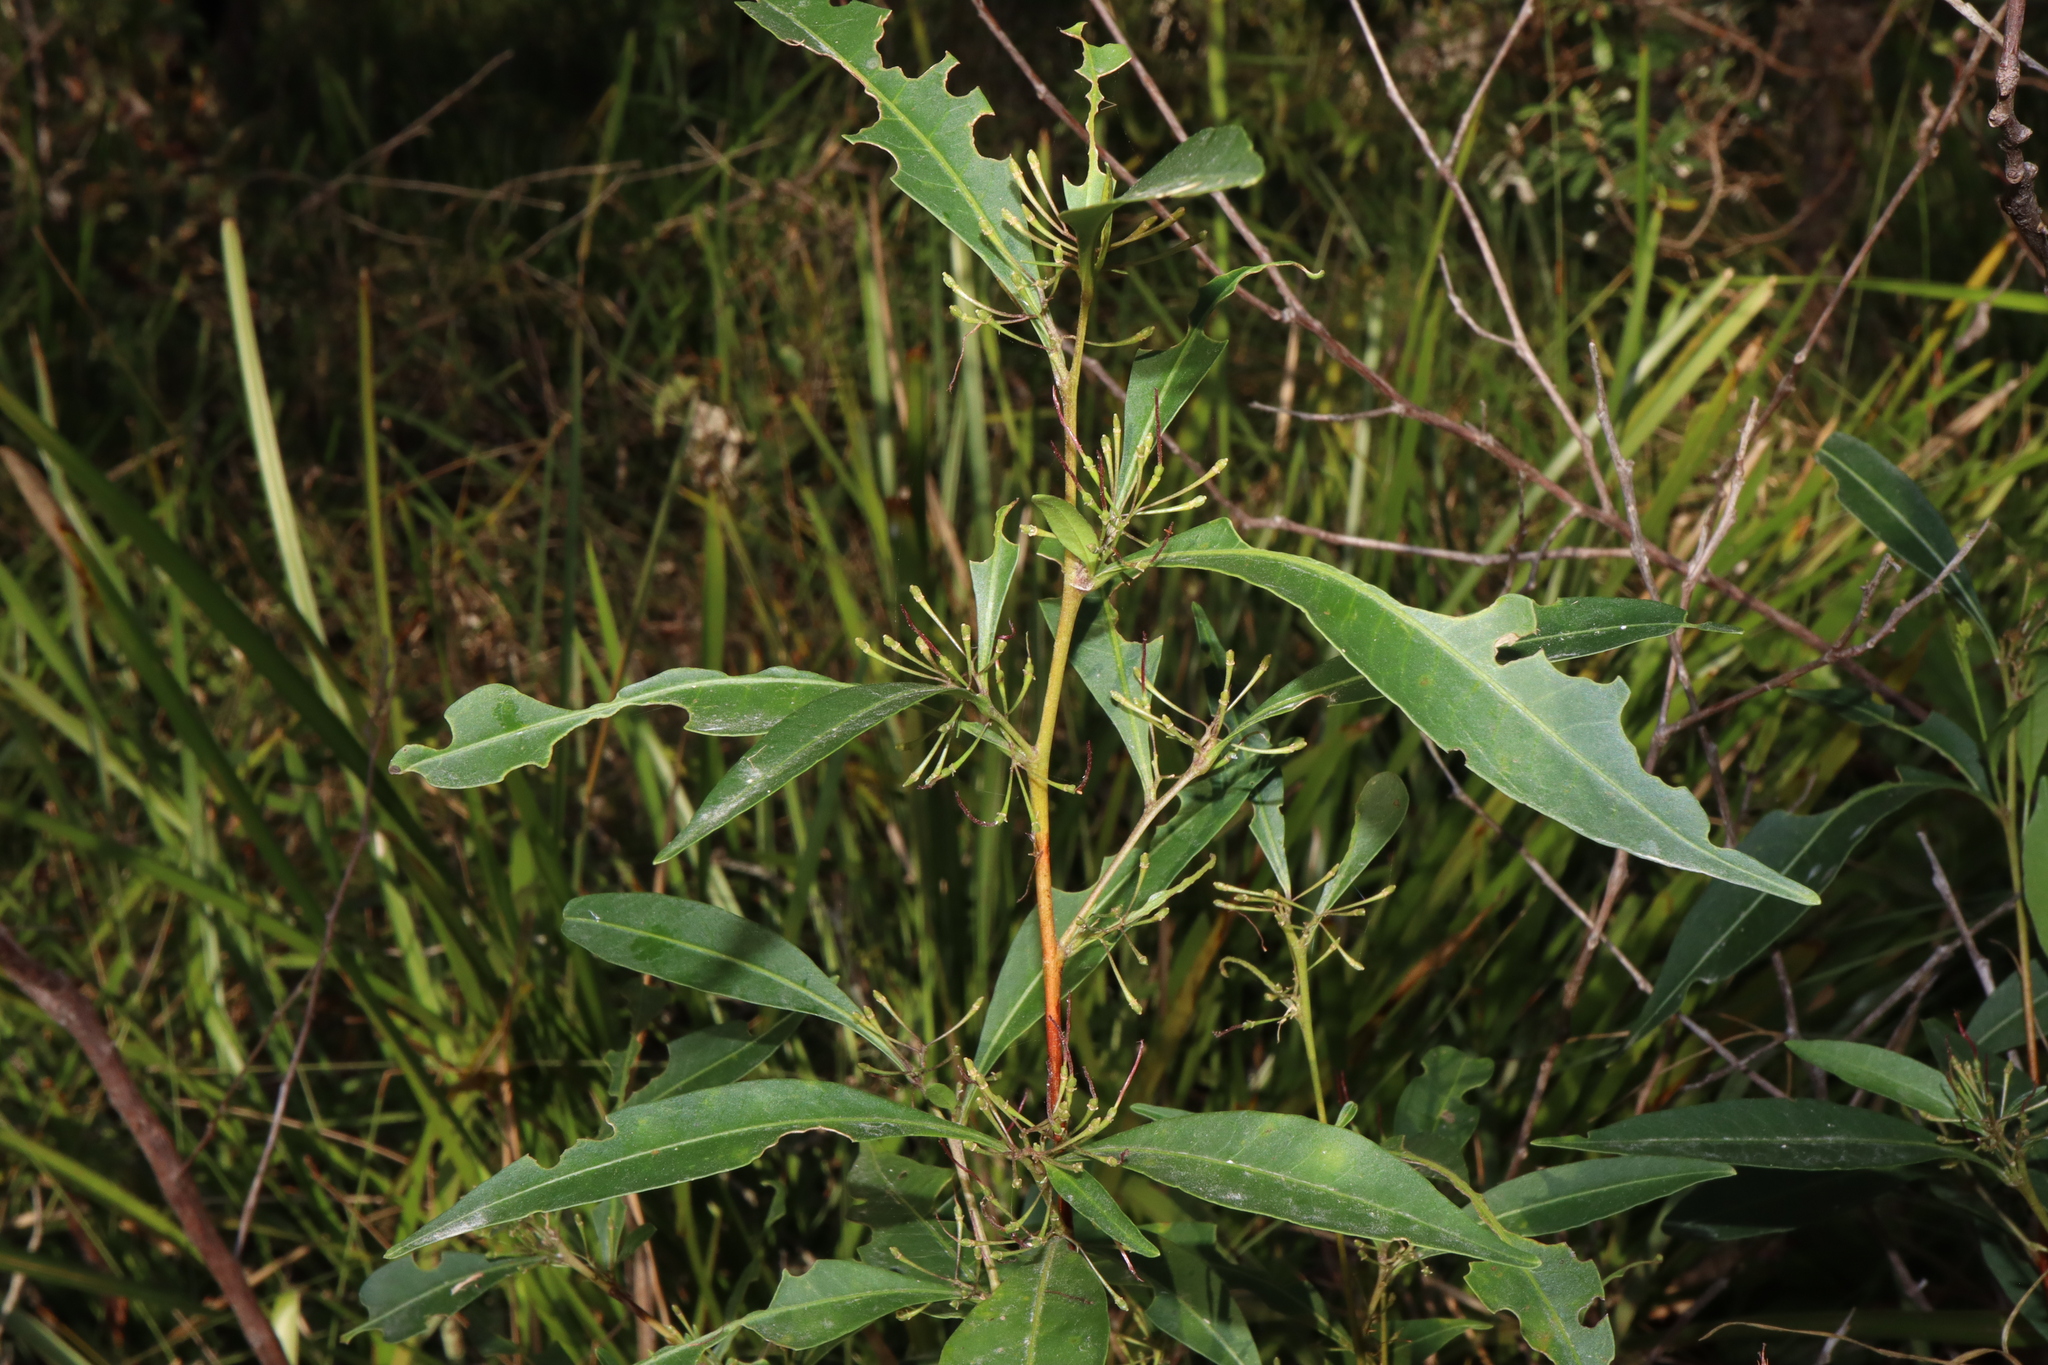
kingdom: Plantae
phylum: Tracheophyta
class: Magnoliopsida
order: Sapindales
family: Sapindaceae
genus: Dodonaea
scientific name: Dodonaea triquetra
